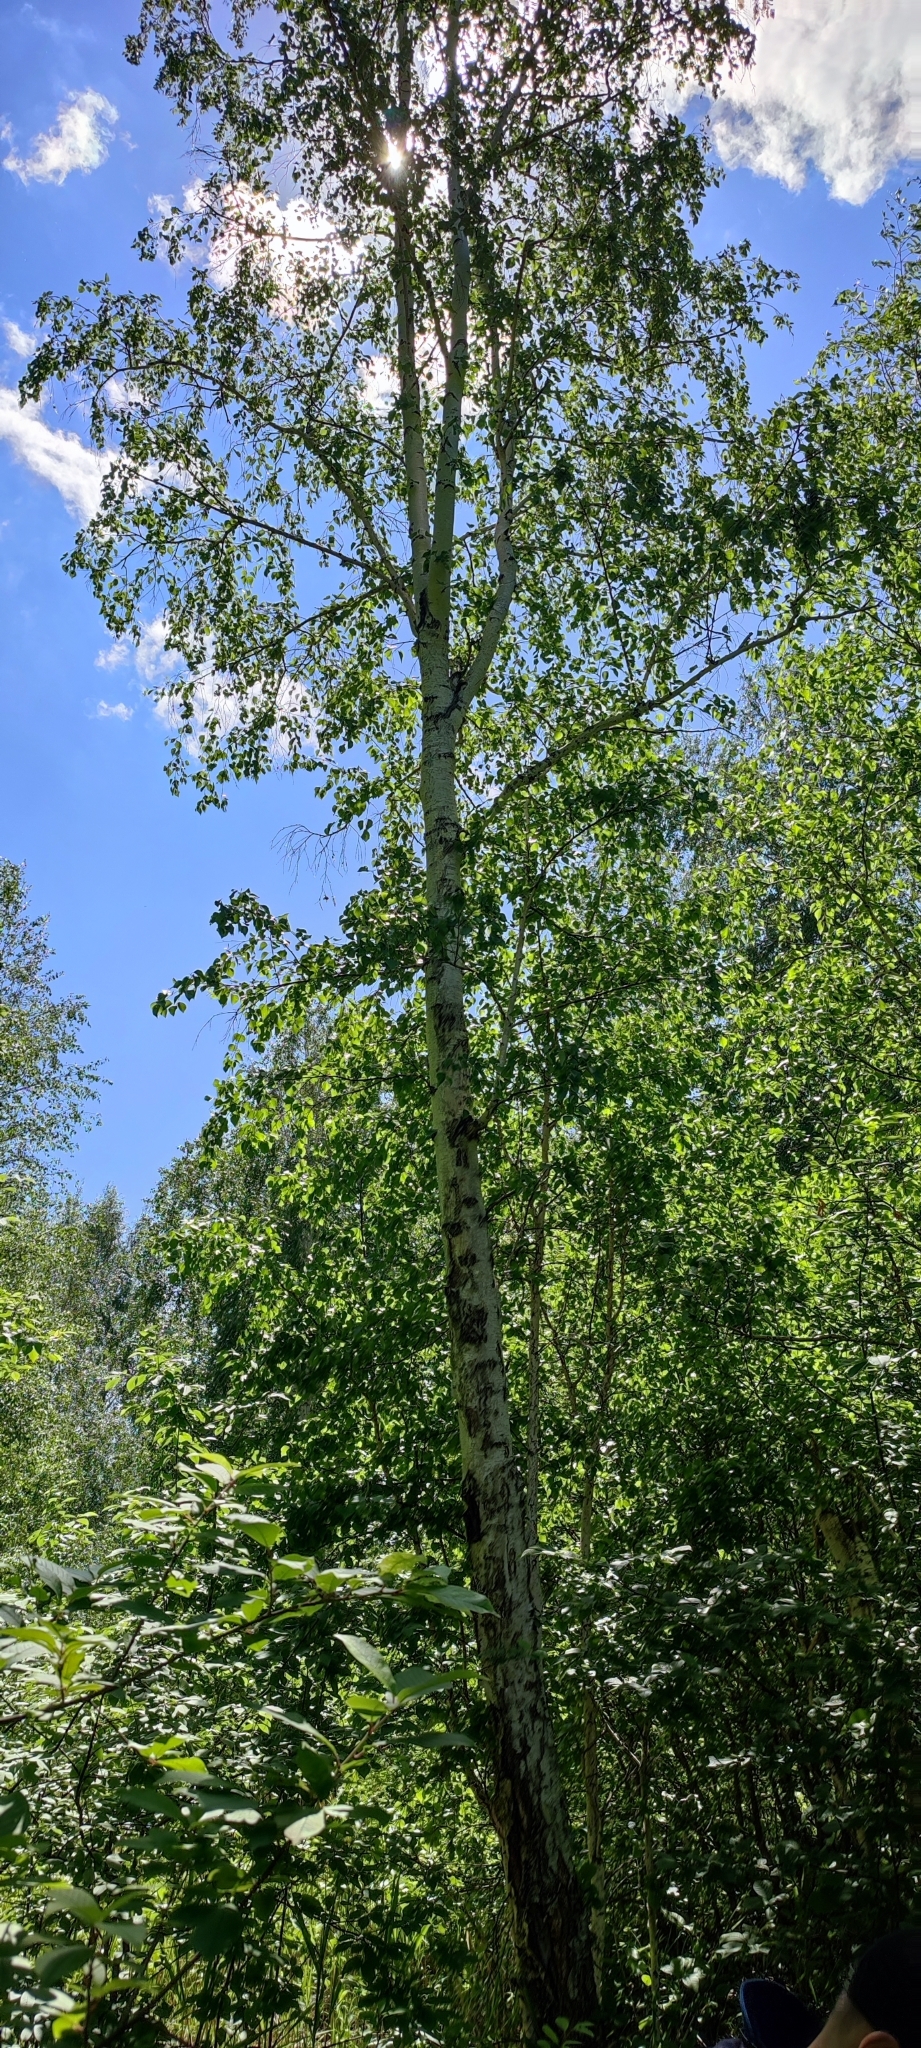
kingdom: Plantae
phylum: Tracheophyta
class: Magnoliopsida
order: Fagales
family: Betulaceae
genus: Betula
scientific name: Betula pendula
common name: Silver birch
